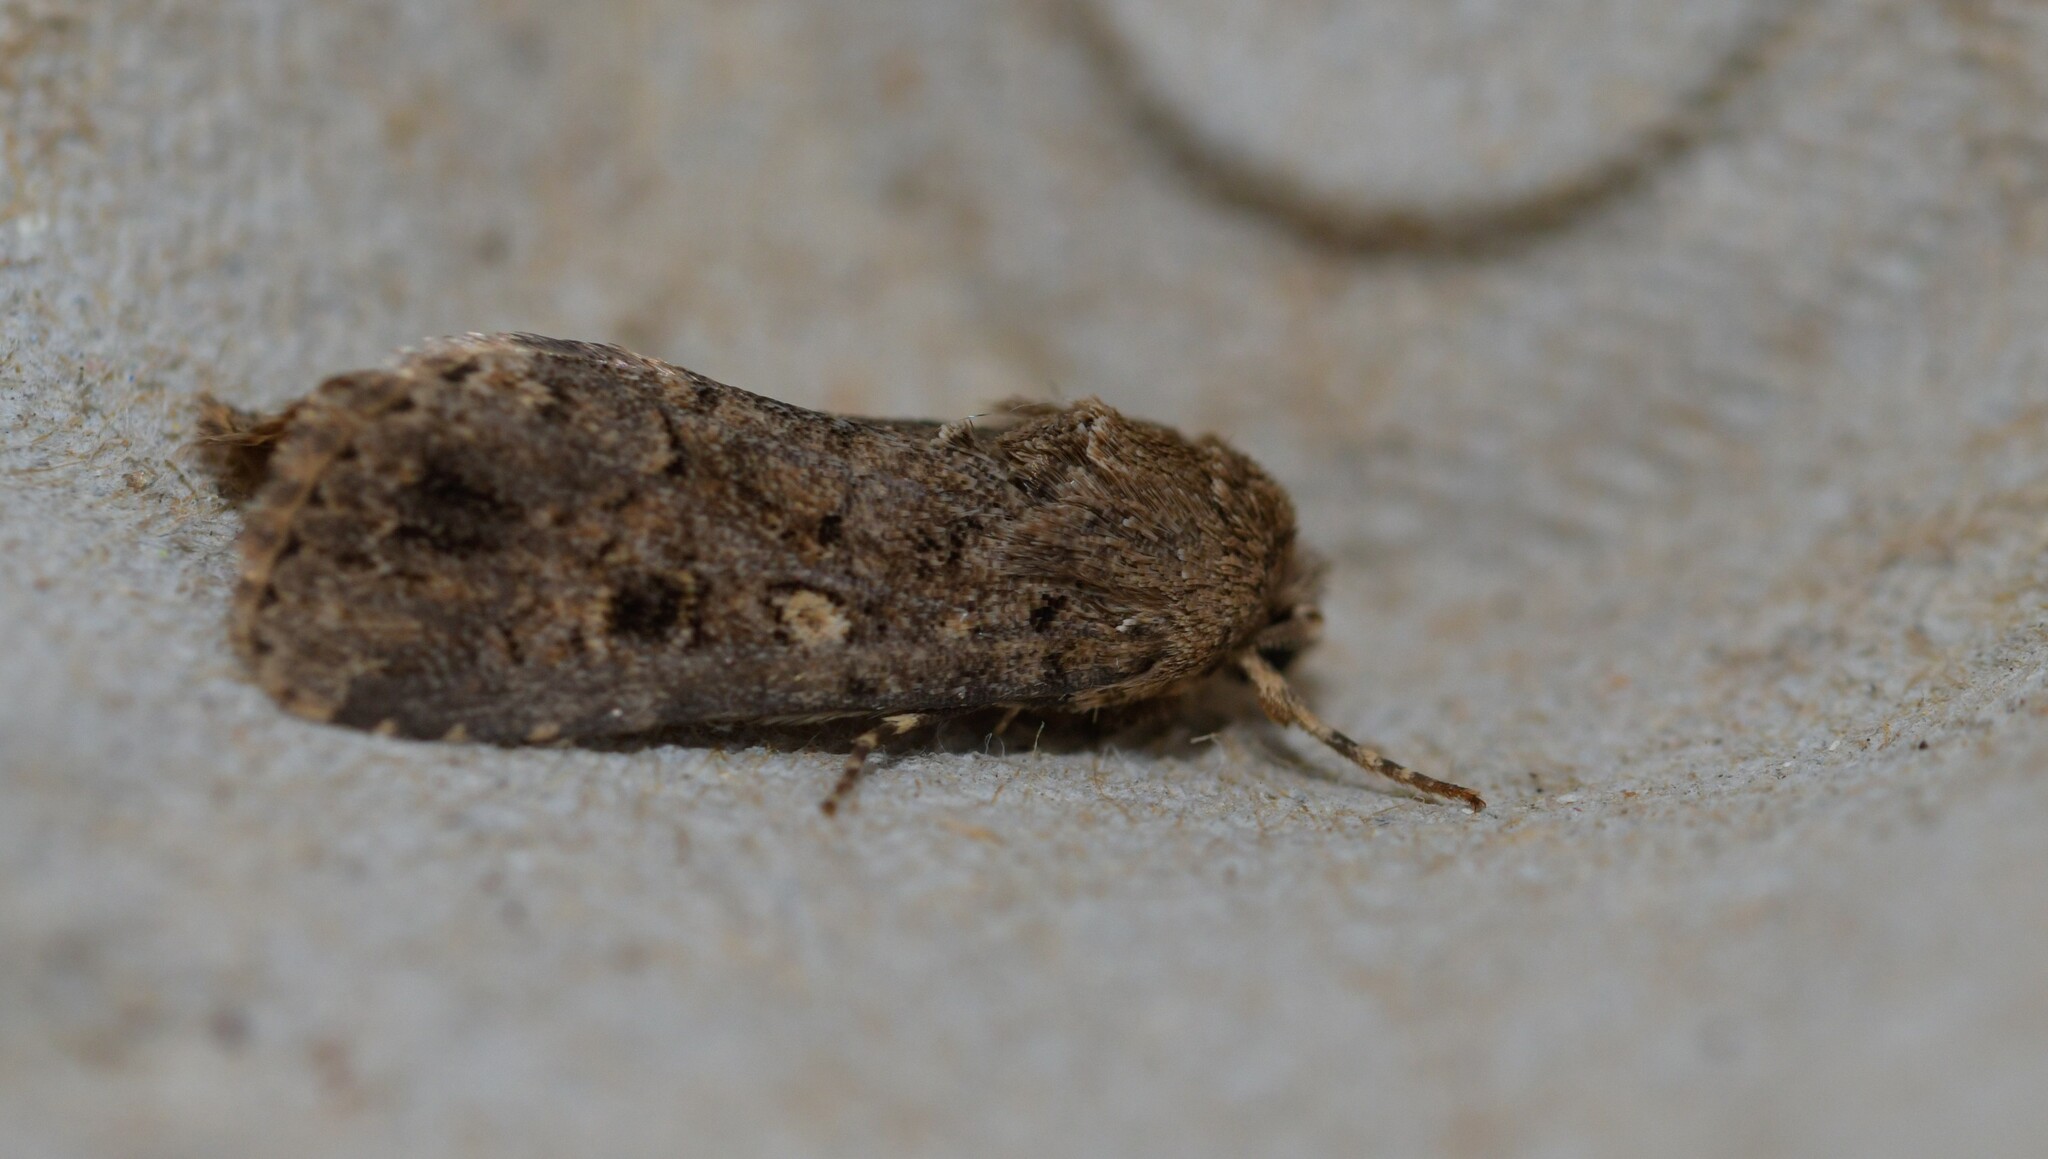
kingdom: Animalia
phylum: Arthropoda
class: Insecta
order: Lepidoptera
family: Noctuidae
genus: Spodoptera
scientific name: Spodoptera cilium
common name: Dark mottled willow
